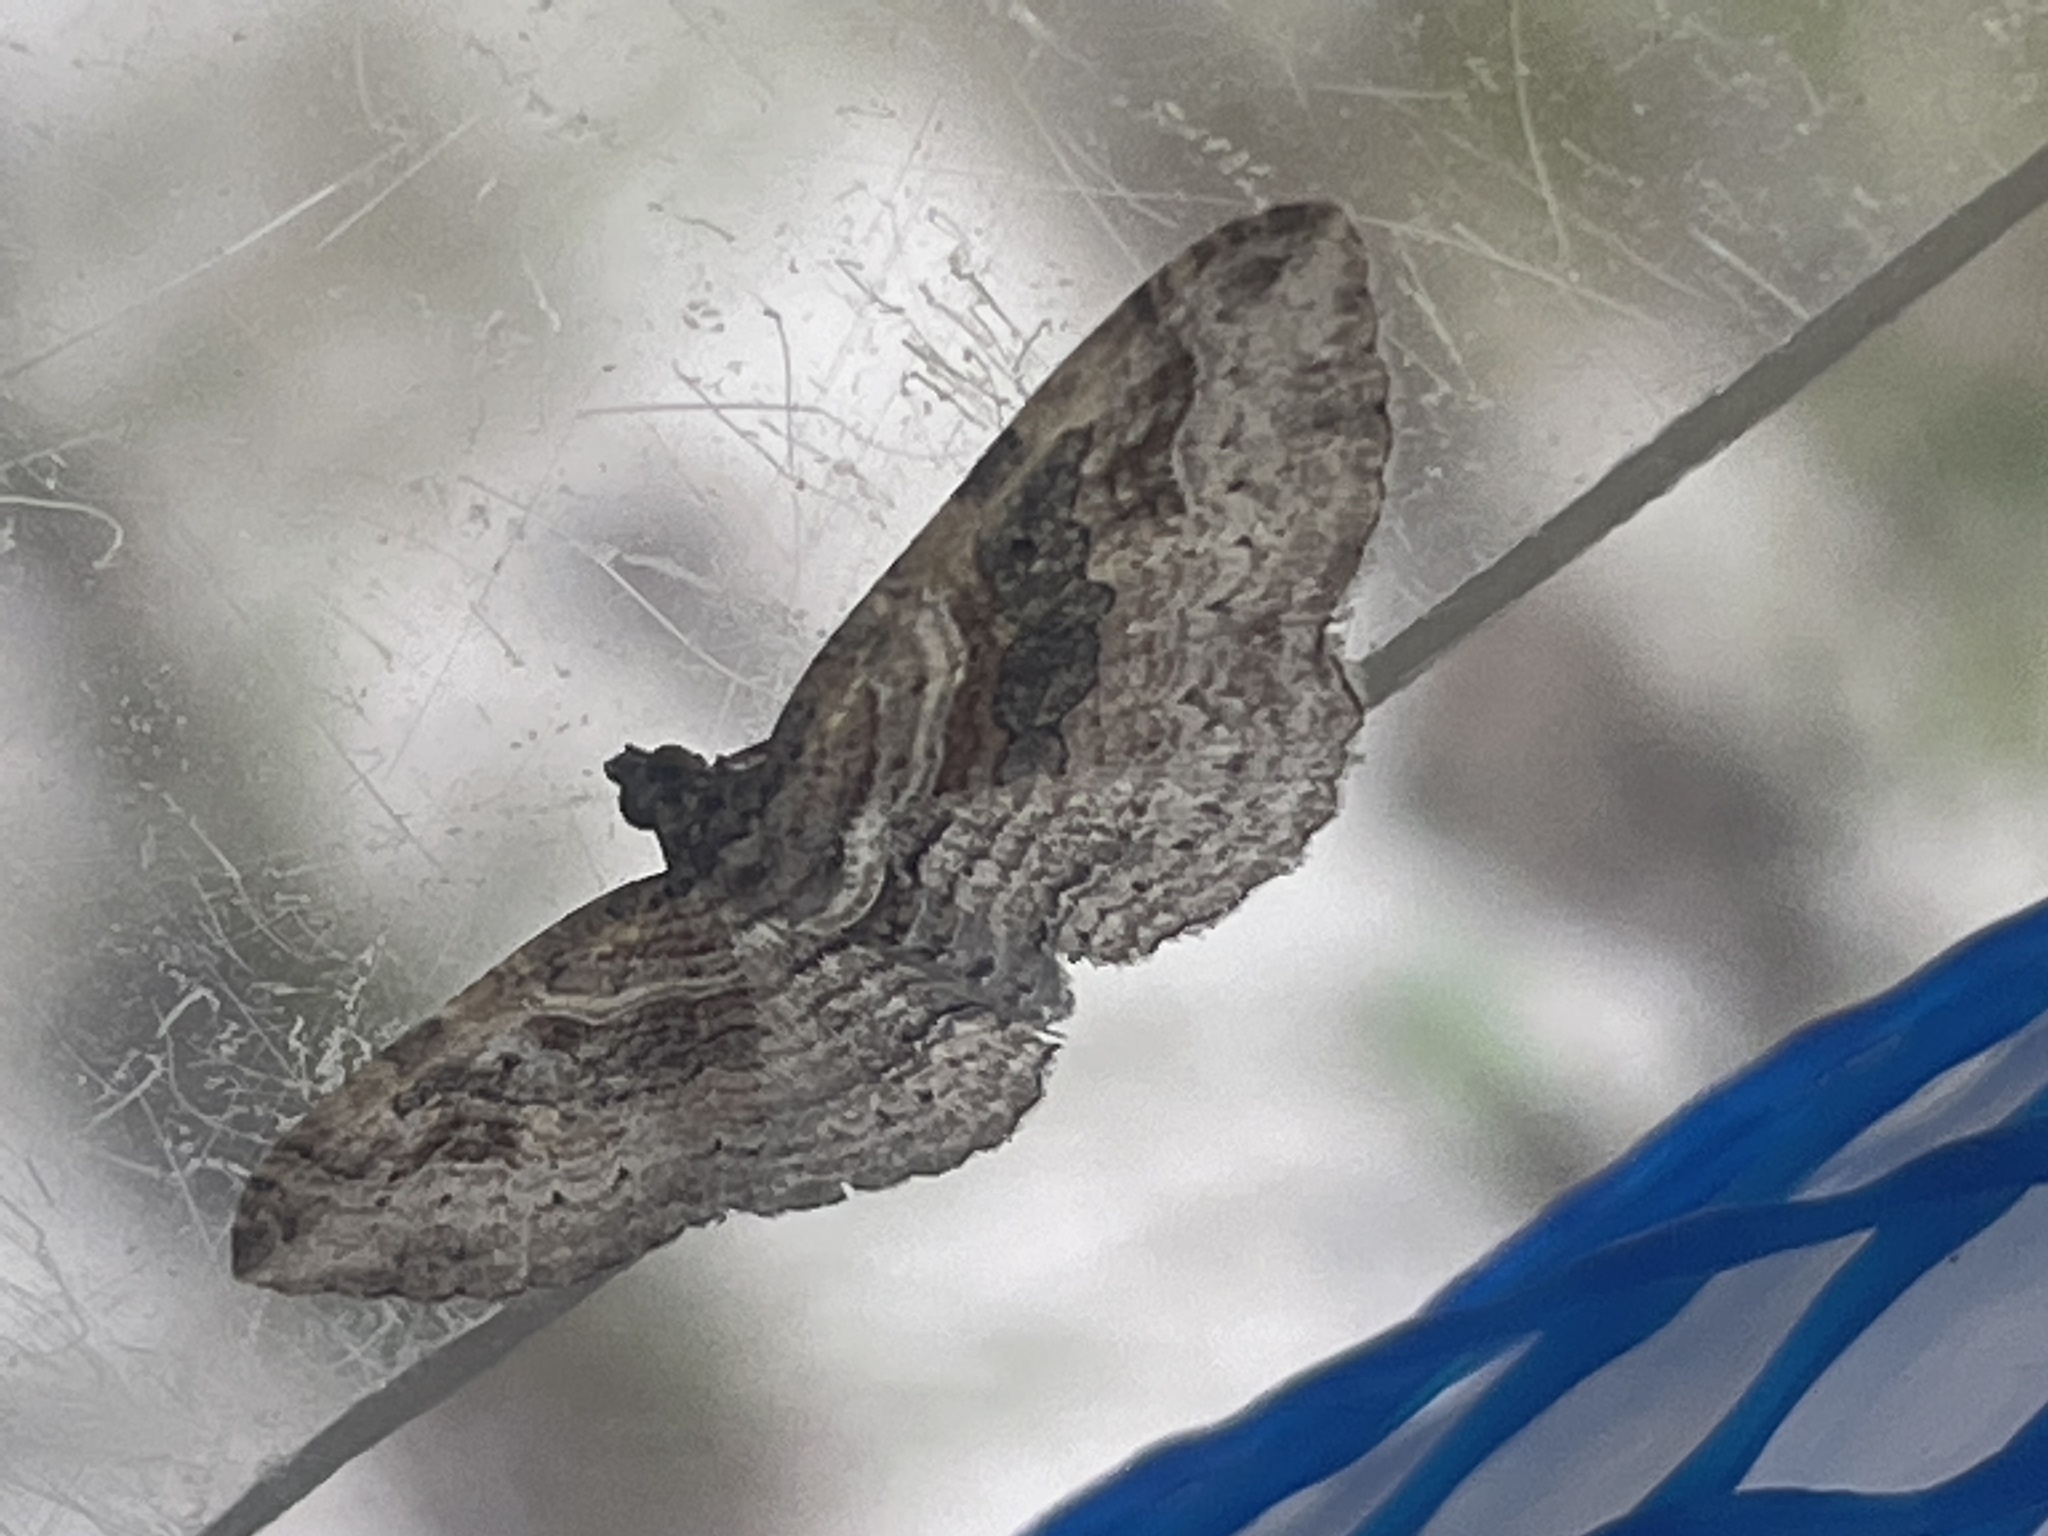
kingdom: Animalia
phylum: Arthropoda
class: Insecta
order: Lepidoptera
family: Geometridae
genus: Costaconvexa
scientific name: Costaconvexa centrostrigaria
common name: Bent-line carpet
